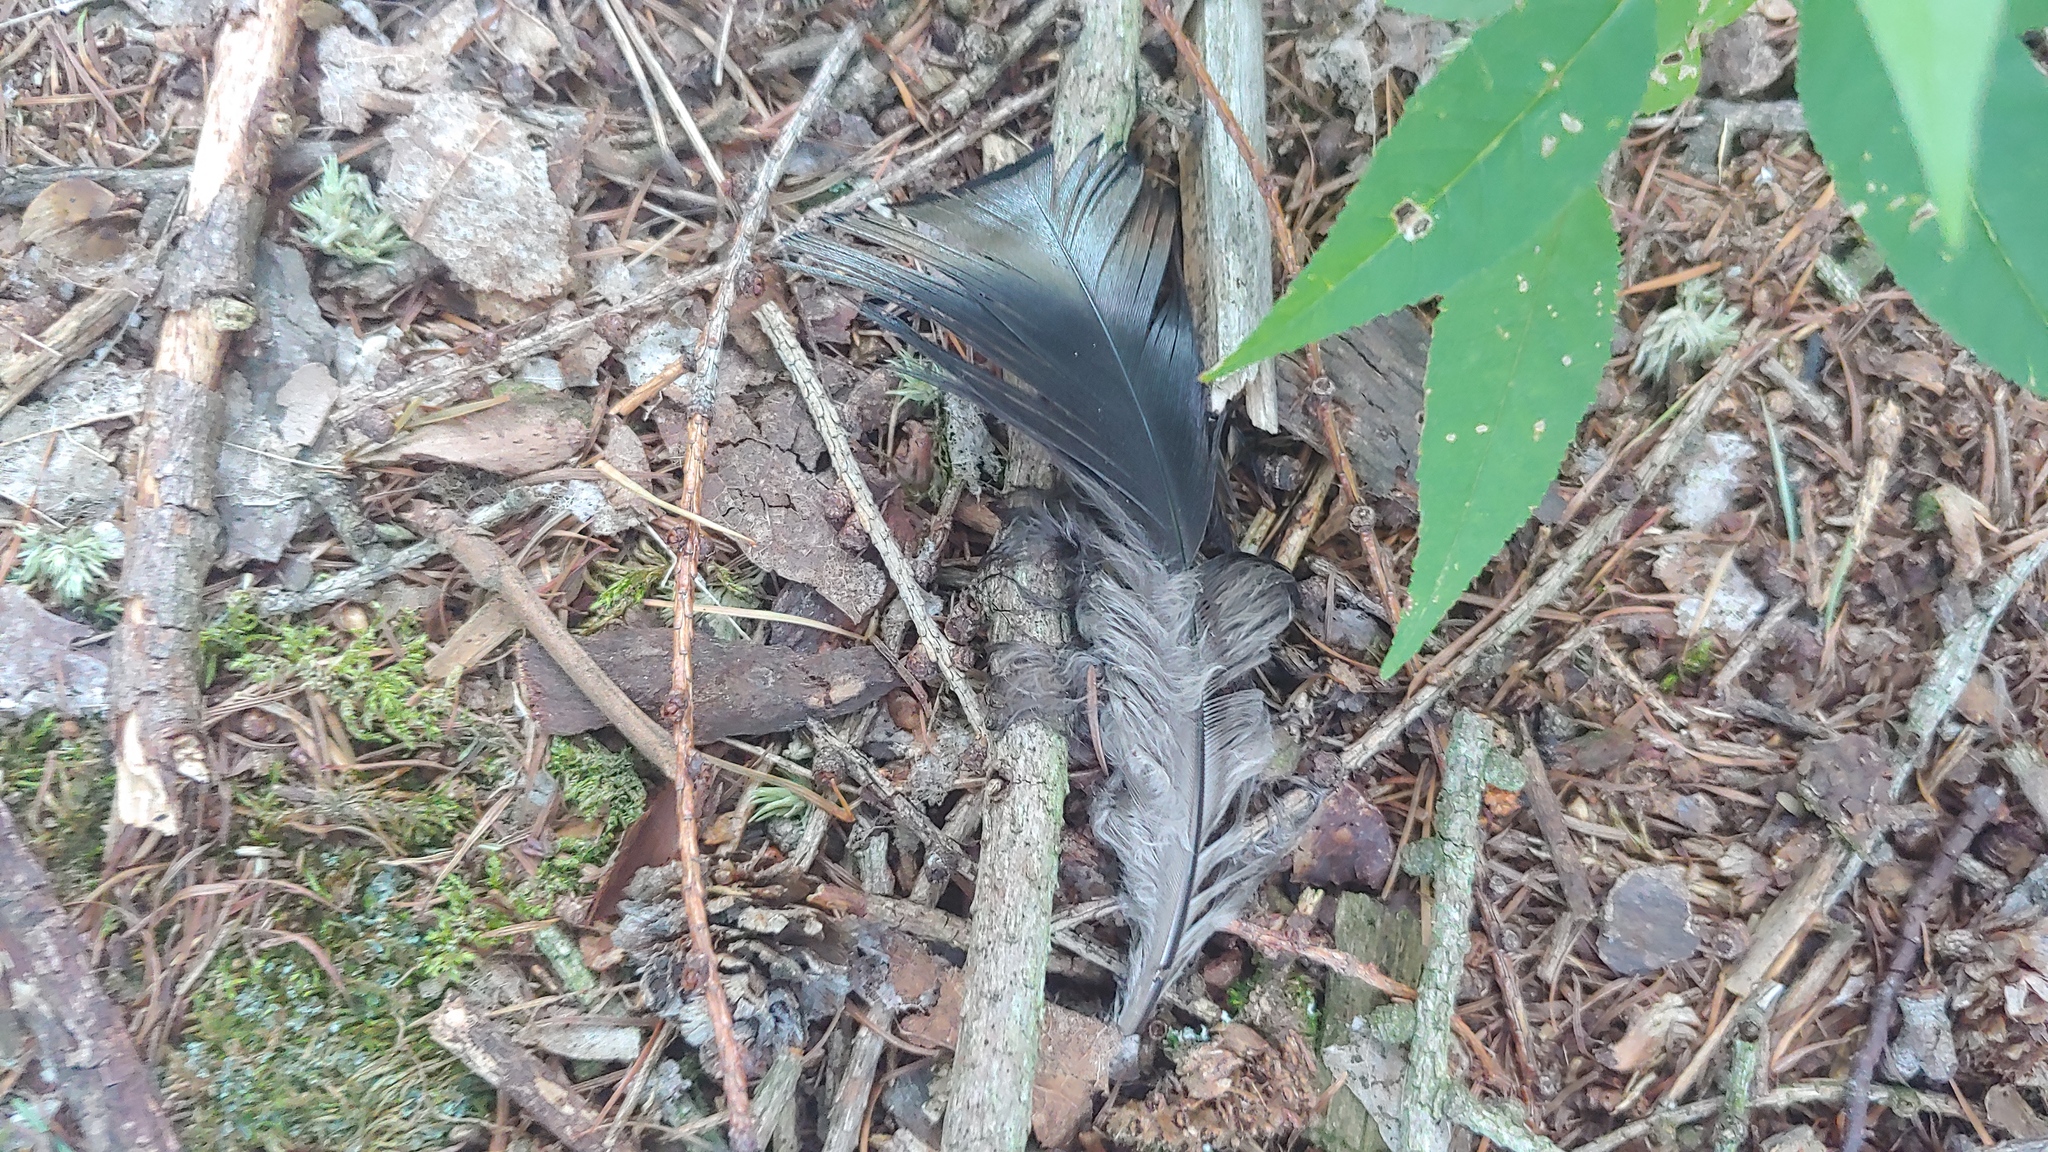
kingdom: Animalia
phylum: Chordata
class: Aves
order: Galliformes
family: Phasianidae
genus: Meleagris
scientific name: Meleagris gallopavo
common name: Wild turkey
